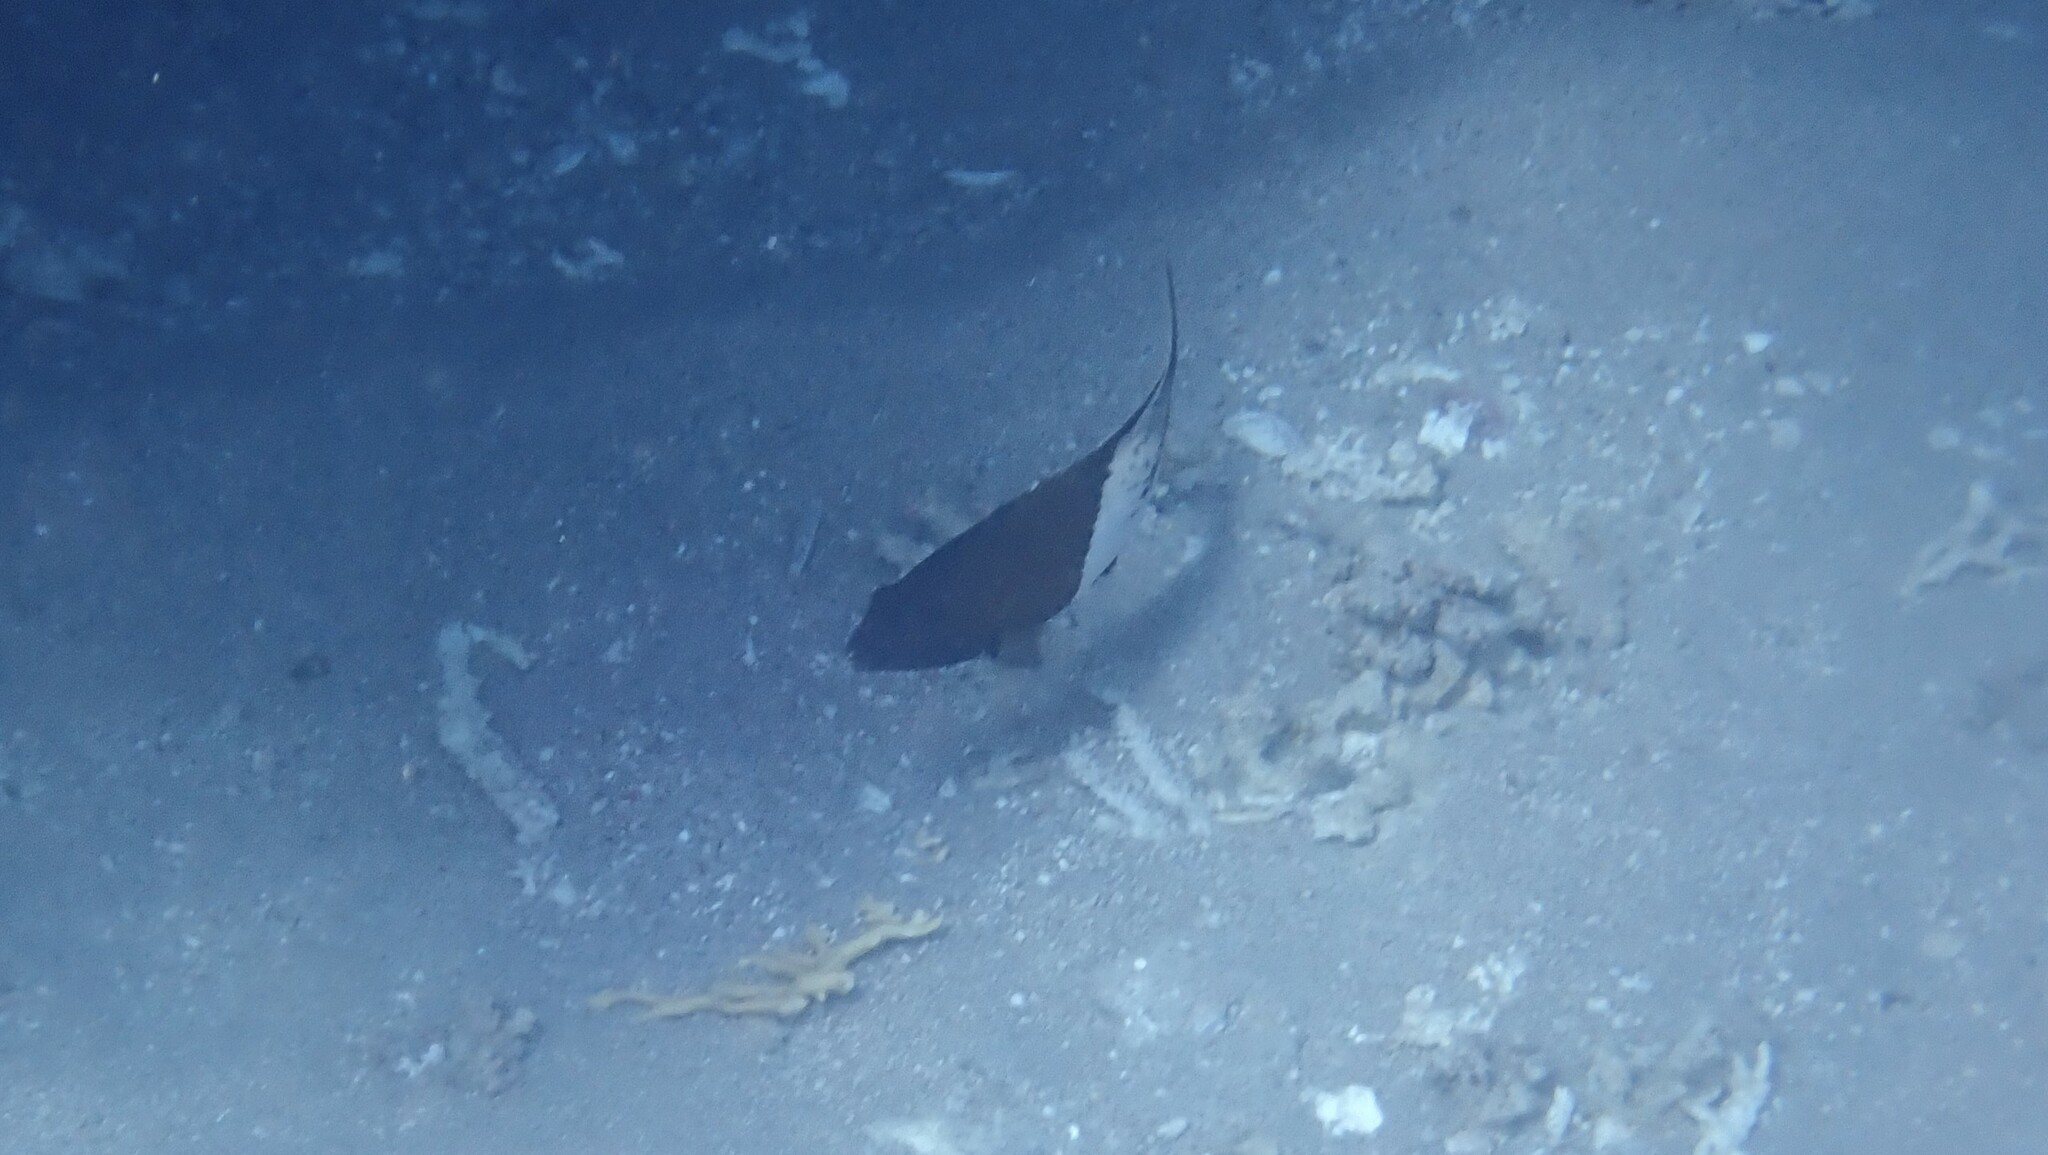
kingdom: Animalia
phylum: Chordata
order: Perciformes
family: Labridae
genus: Bodianus
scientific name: Bodianus anthioides
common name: Lyretail hogfish
